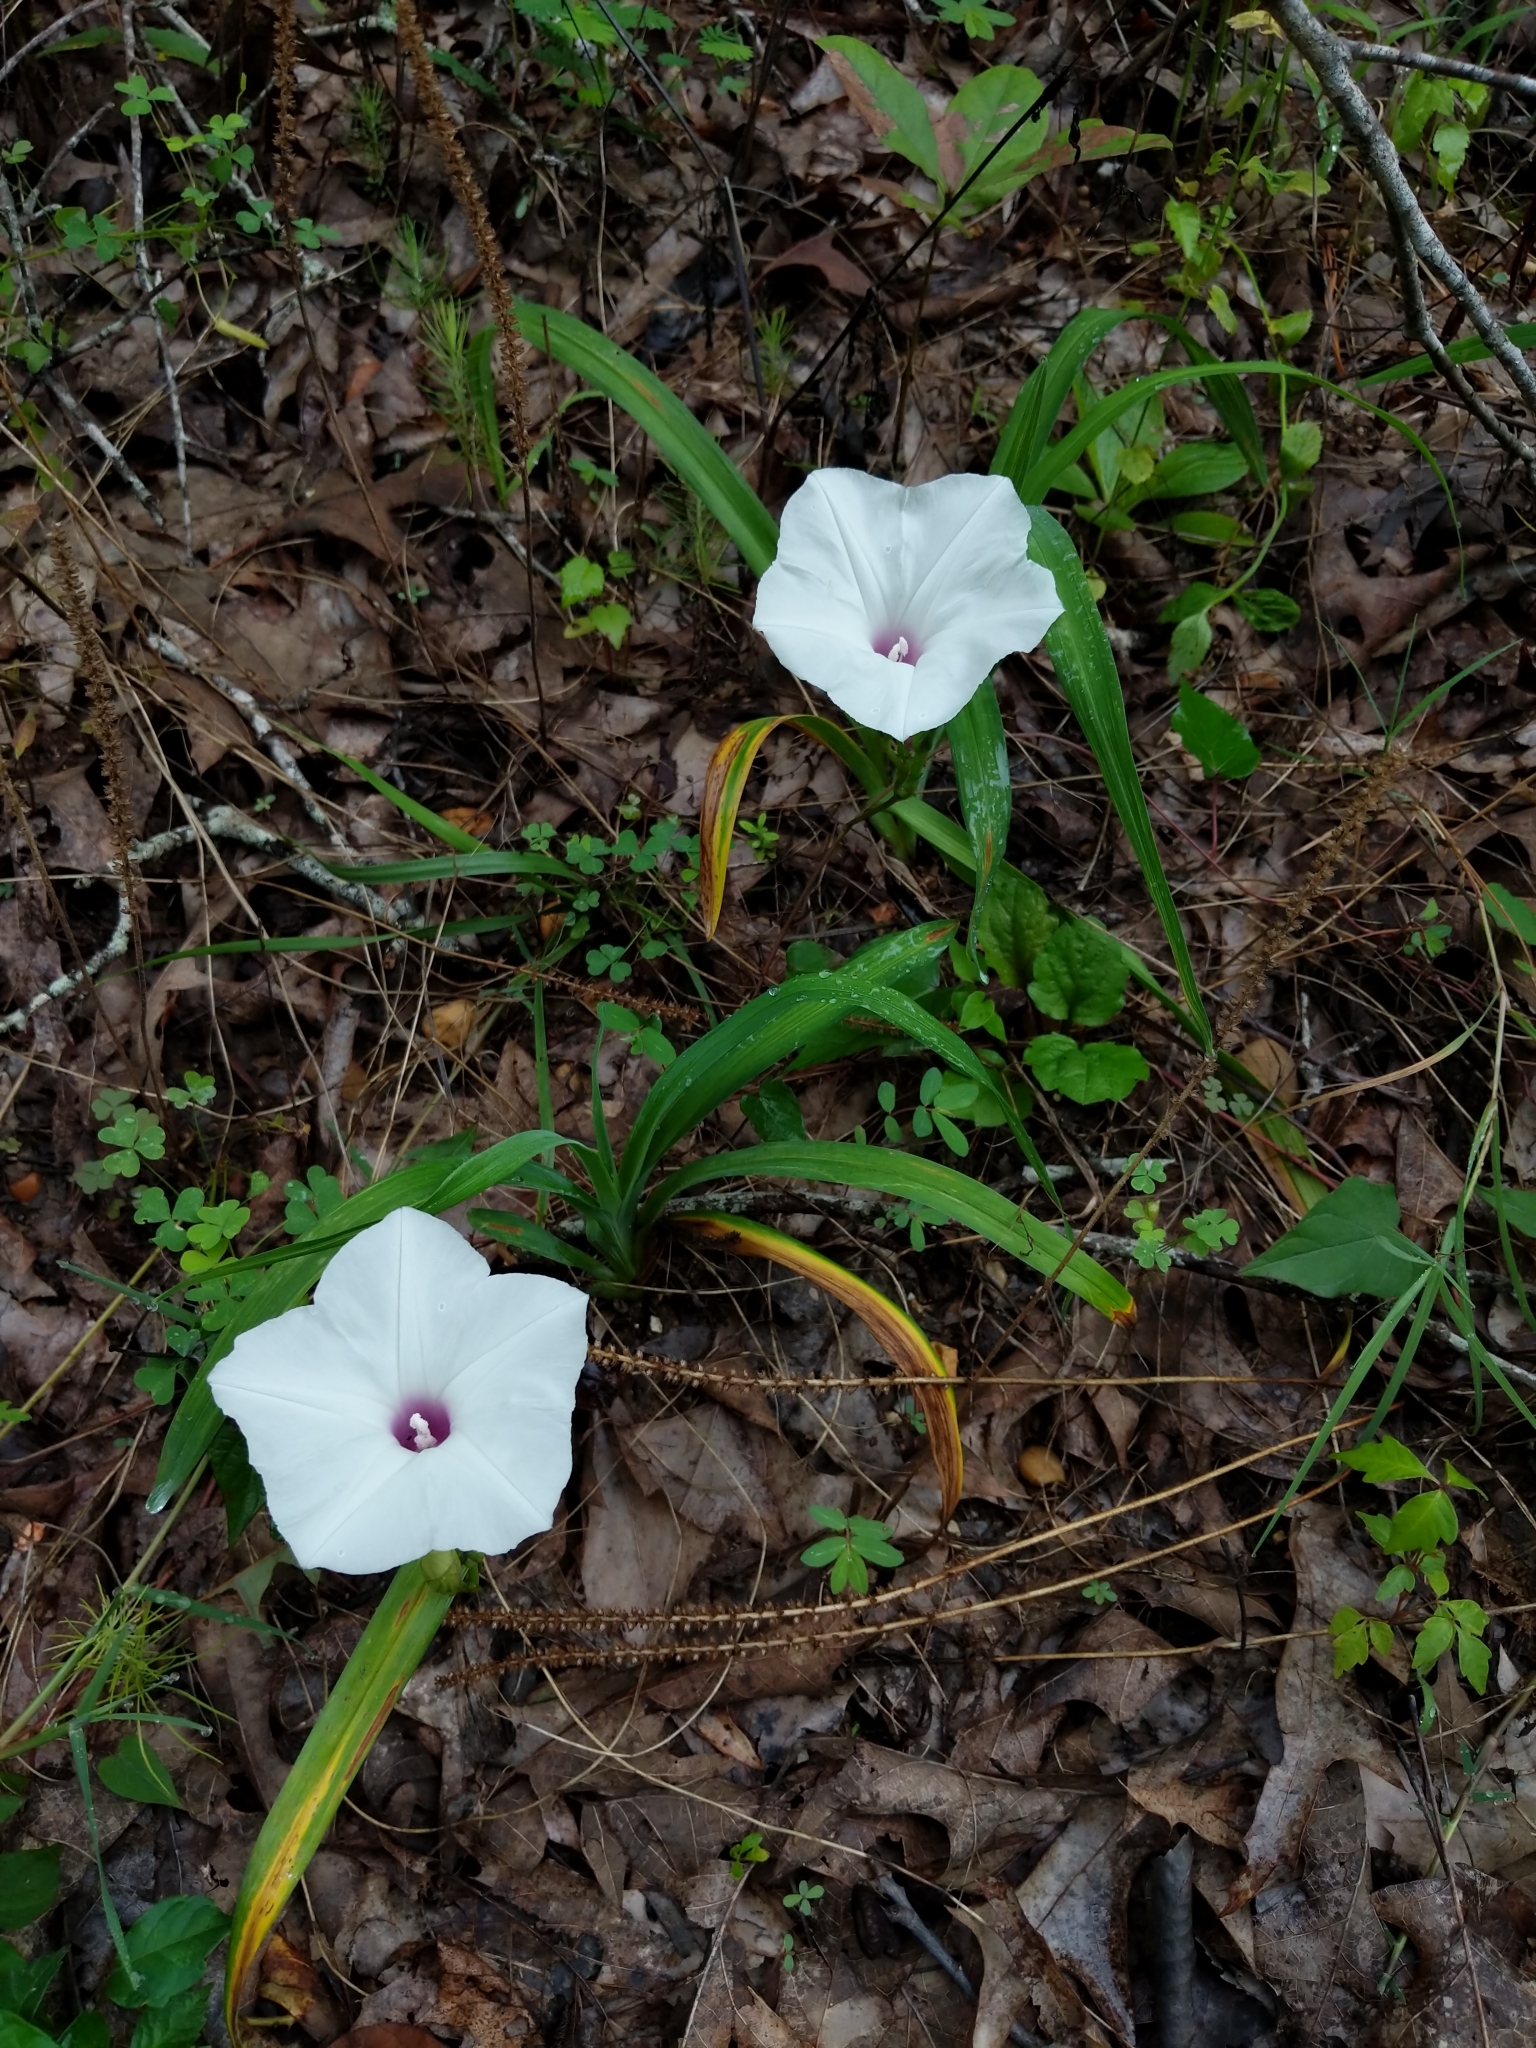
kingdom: Plantae
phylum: Tracheophyta
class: Magnoliopsida
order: Solanales
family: Convolvulaceae
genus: Ipomoea
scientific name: Ipomoea pandurata
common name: Man-of-the-earth
